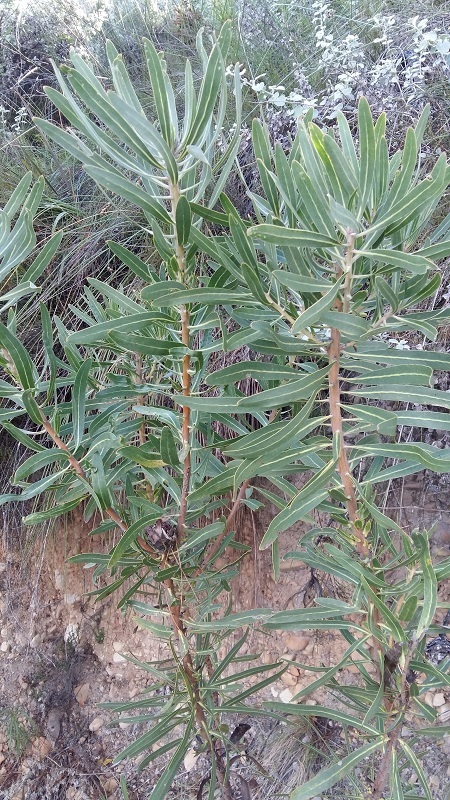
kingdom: Plantae
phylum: Tracheophyta
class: Magnoliopsida
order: Proteales
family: Proteaceae
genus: Protea
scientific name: Protea neriifolia
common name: Blue sugarbush
